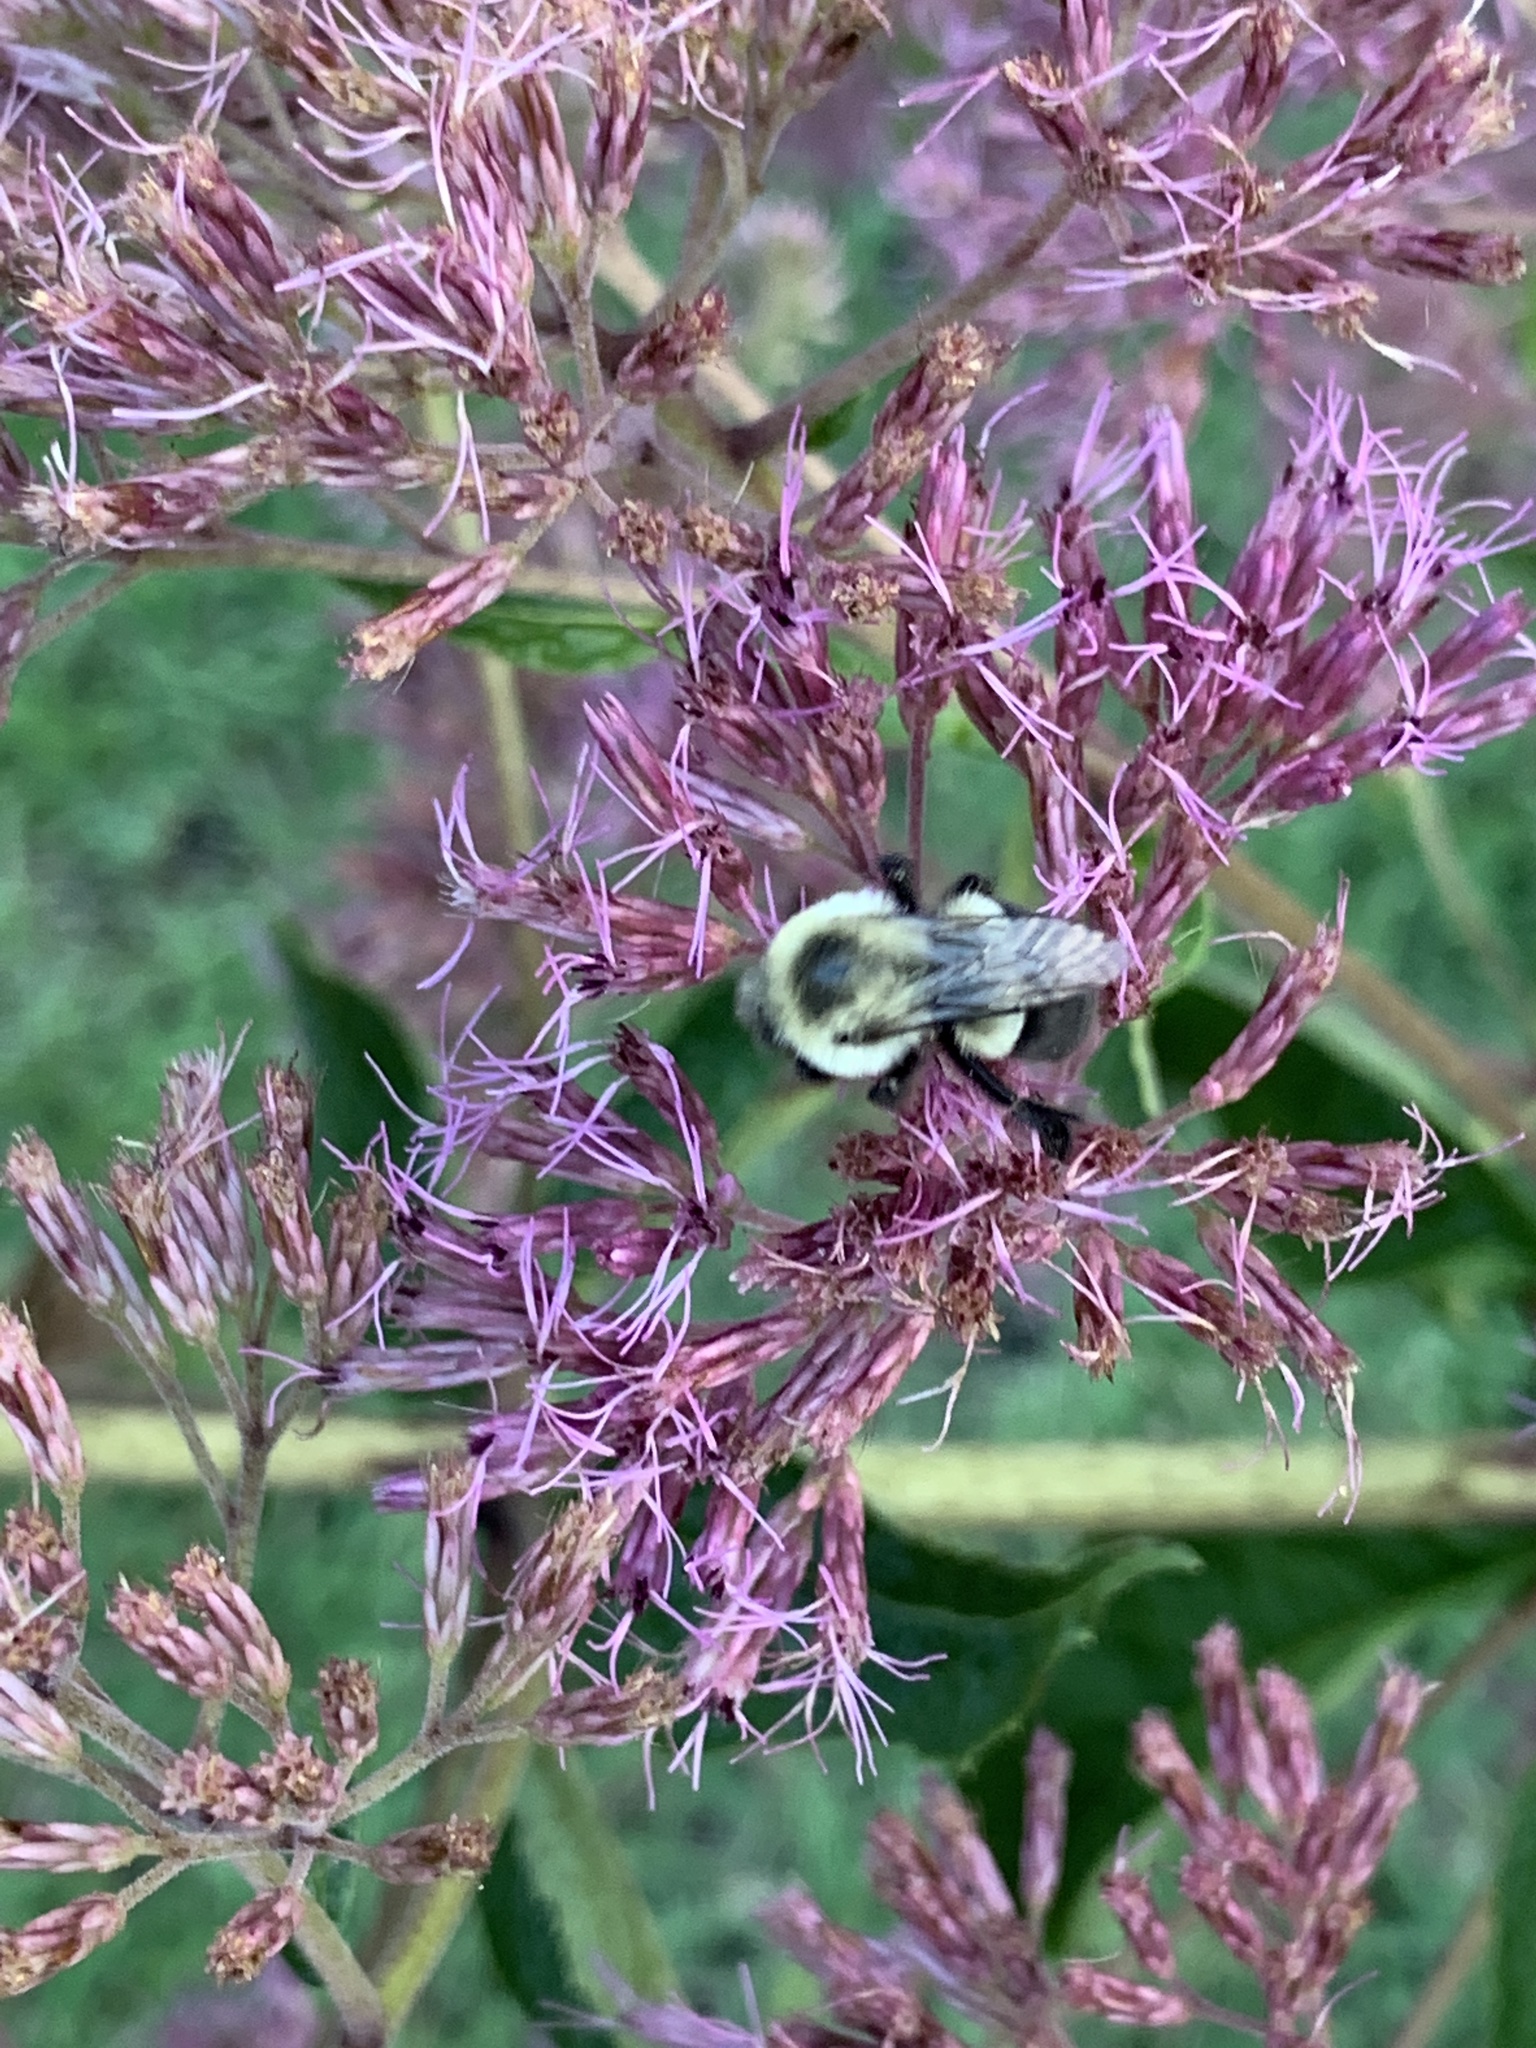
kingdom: Animalia
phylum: Arthropoda
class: Insecta
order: Hymenoptera
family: Apidae
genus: Bombus
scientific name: Bombus impatiens
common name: Common eastern bumble bee
